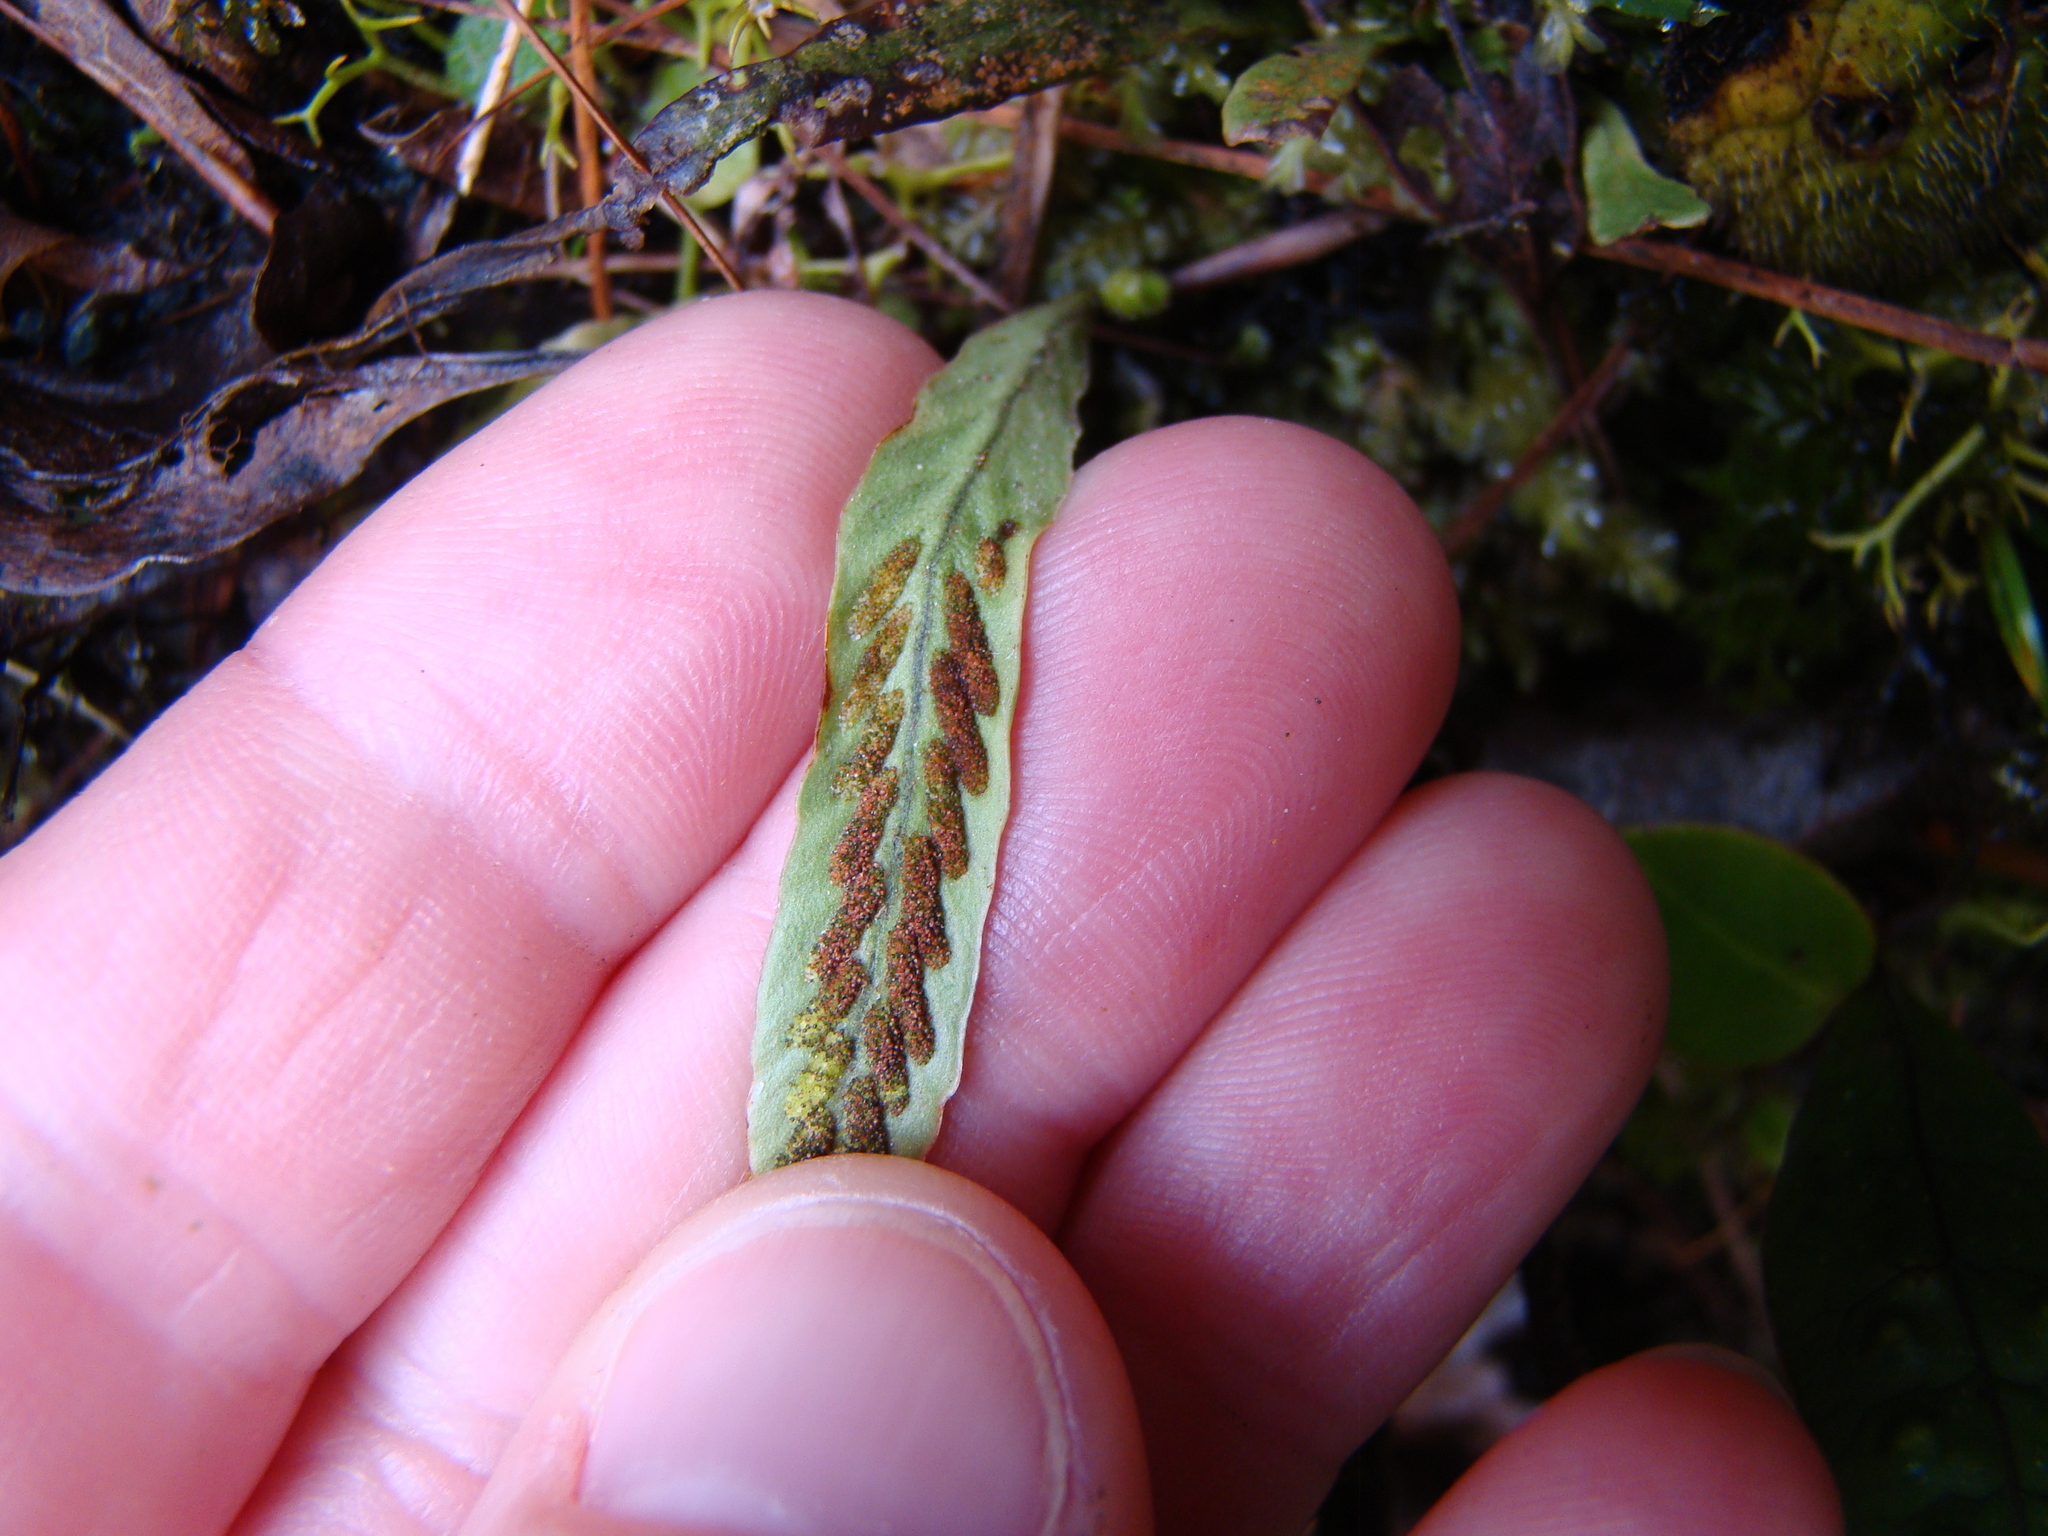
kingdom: Plantae
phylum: Tracheophyta
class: Polypodiopsida
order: Polypodiales
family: Polypodiaceae
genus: Notogrammitis
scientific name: Notogrammitis billardierei
